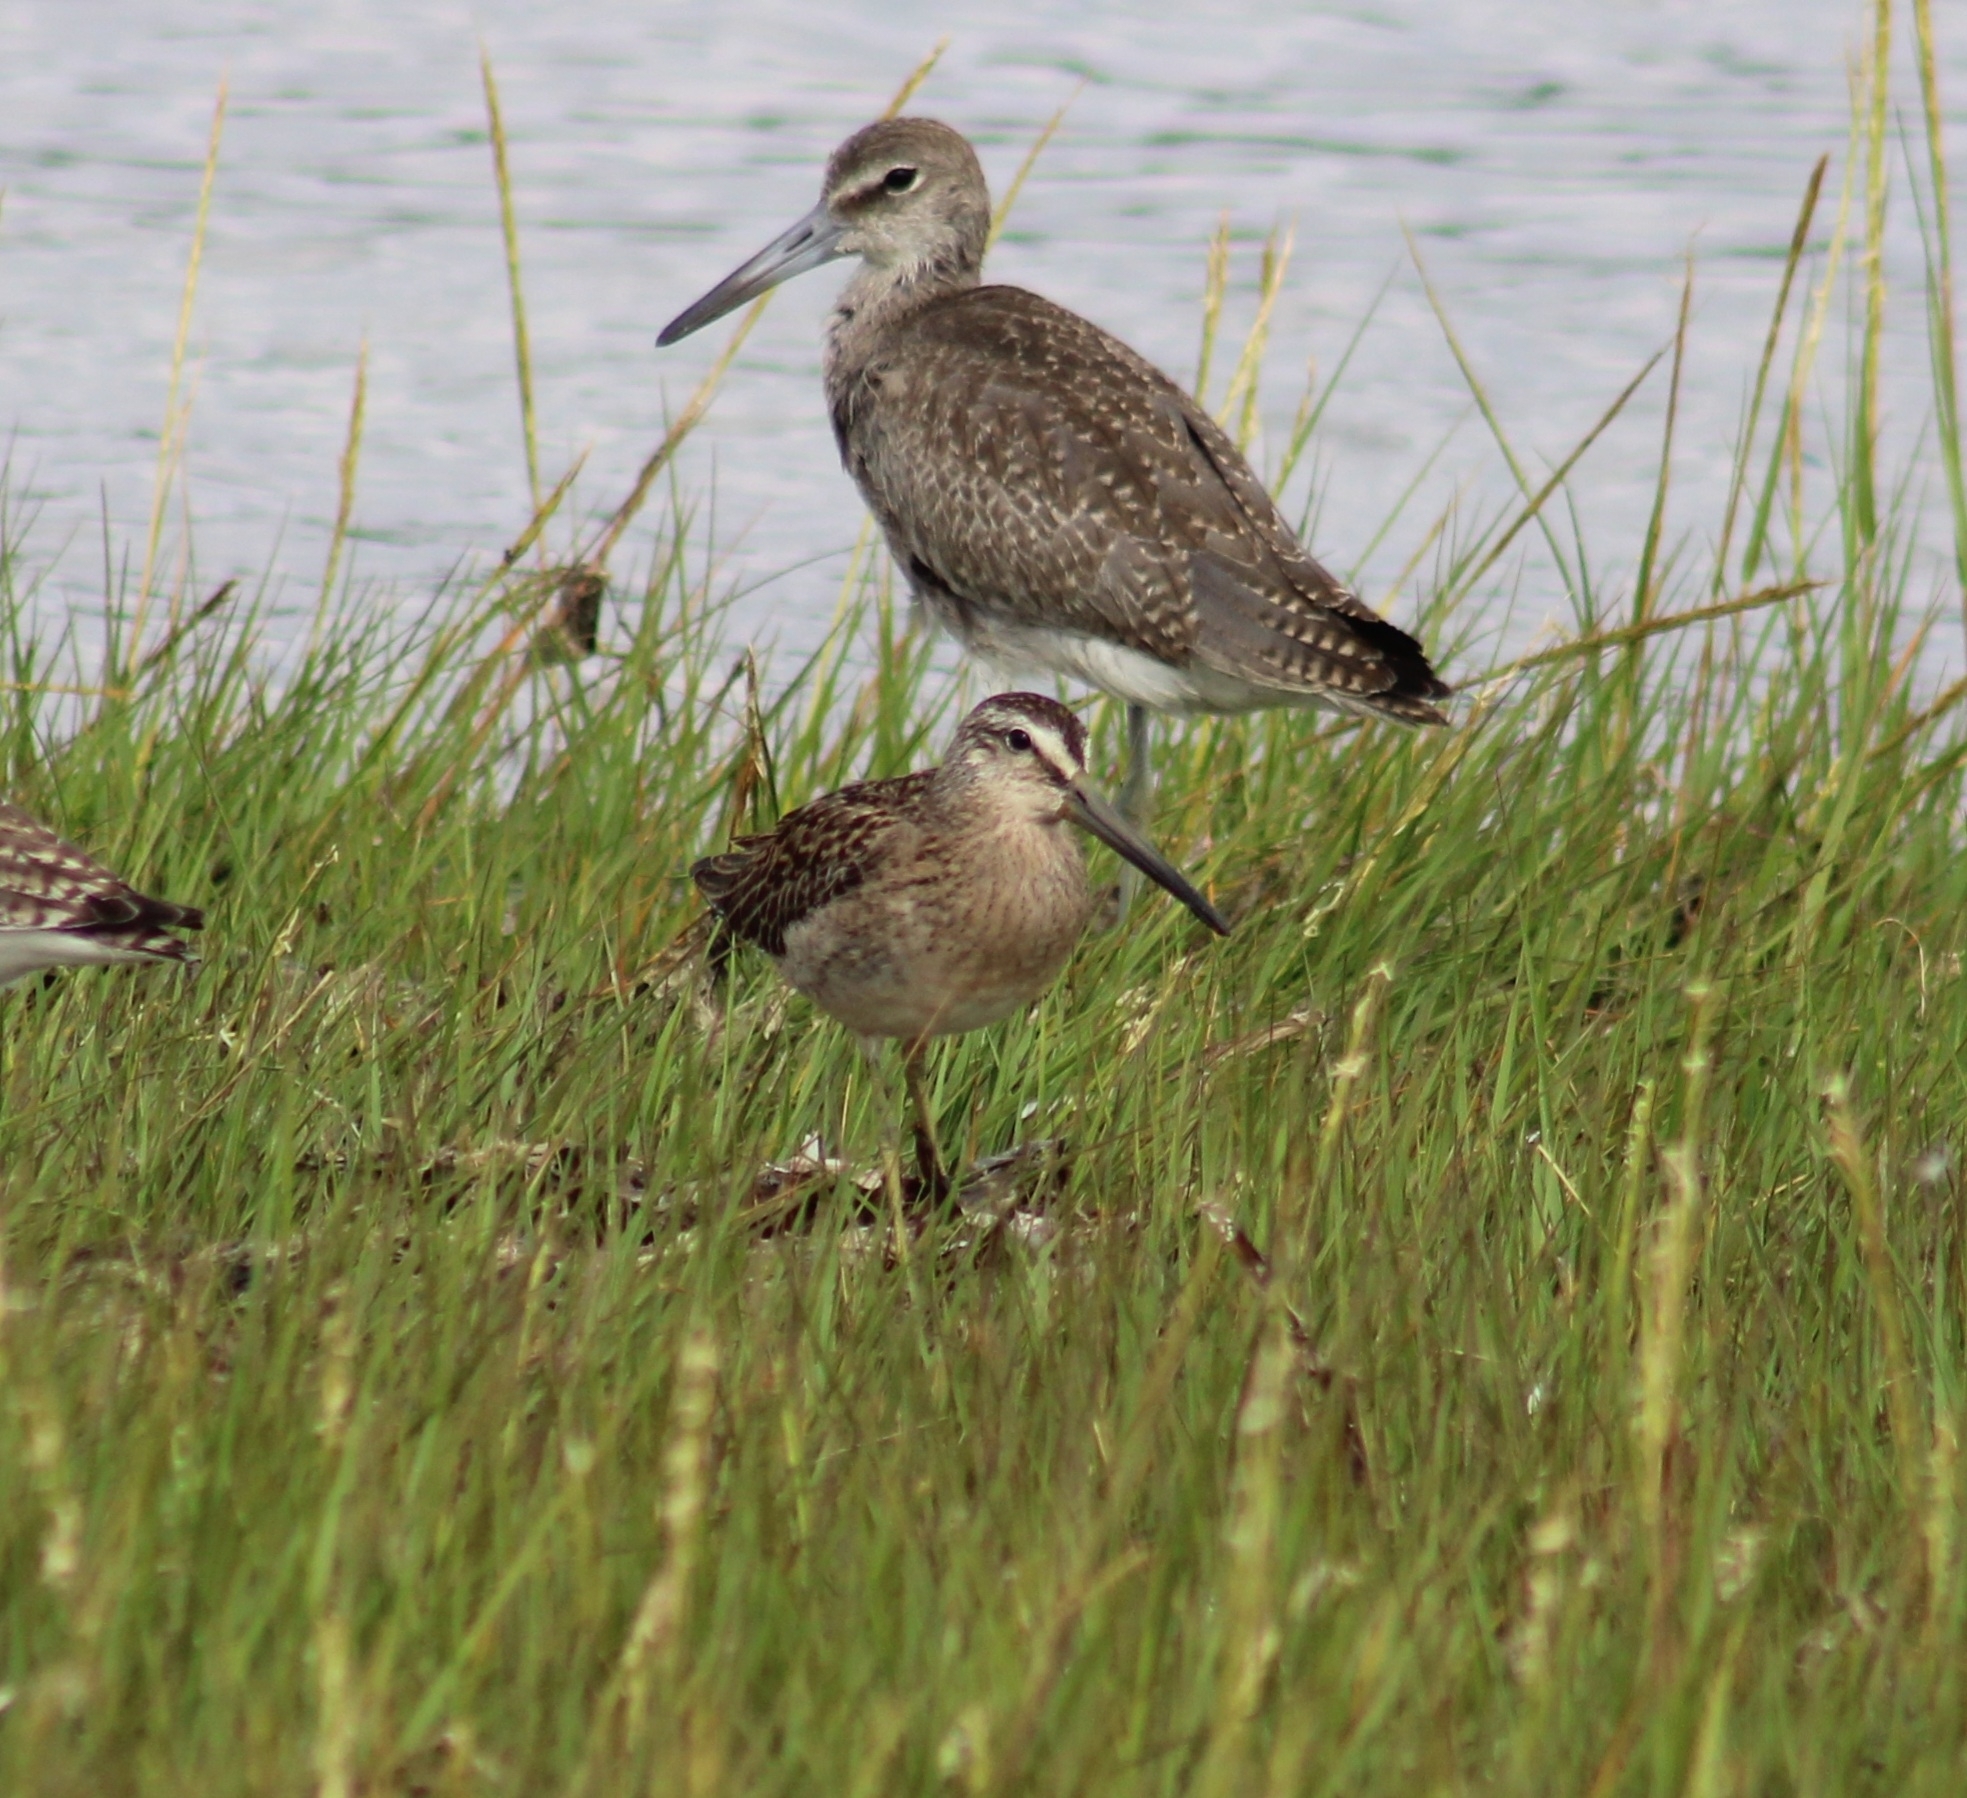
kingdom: Animalia
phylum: Chordata
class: Aves
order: Charadriiformes
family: Scolopacidae
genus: Limnodromus
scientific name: Limnodromus griseus
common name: Short-billed dowitcher
